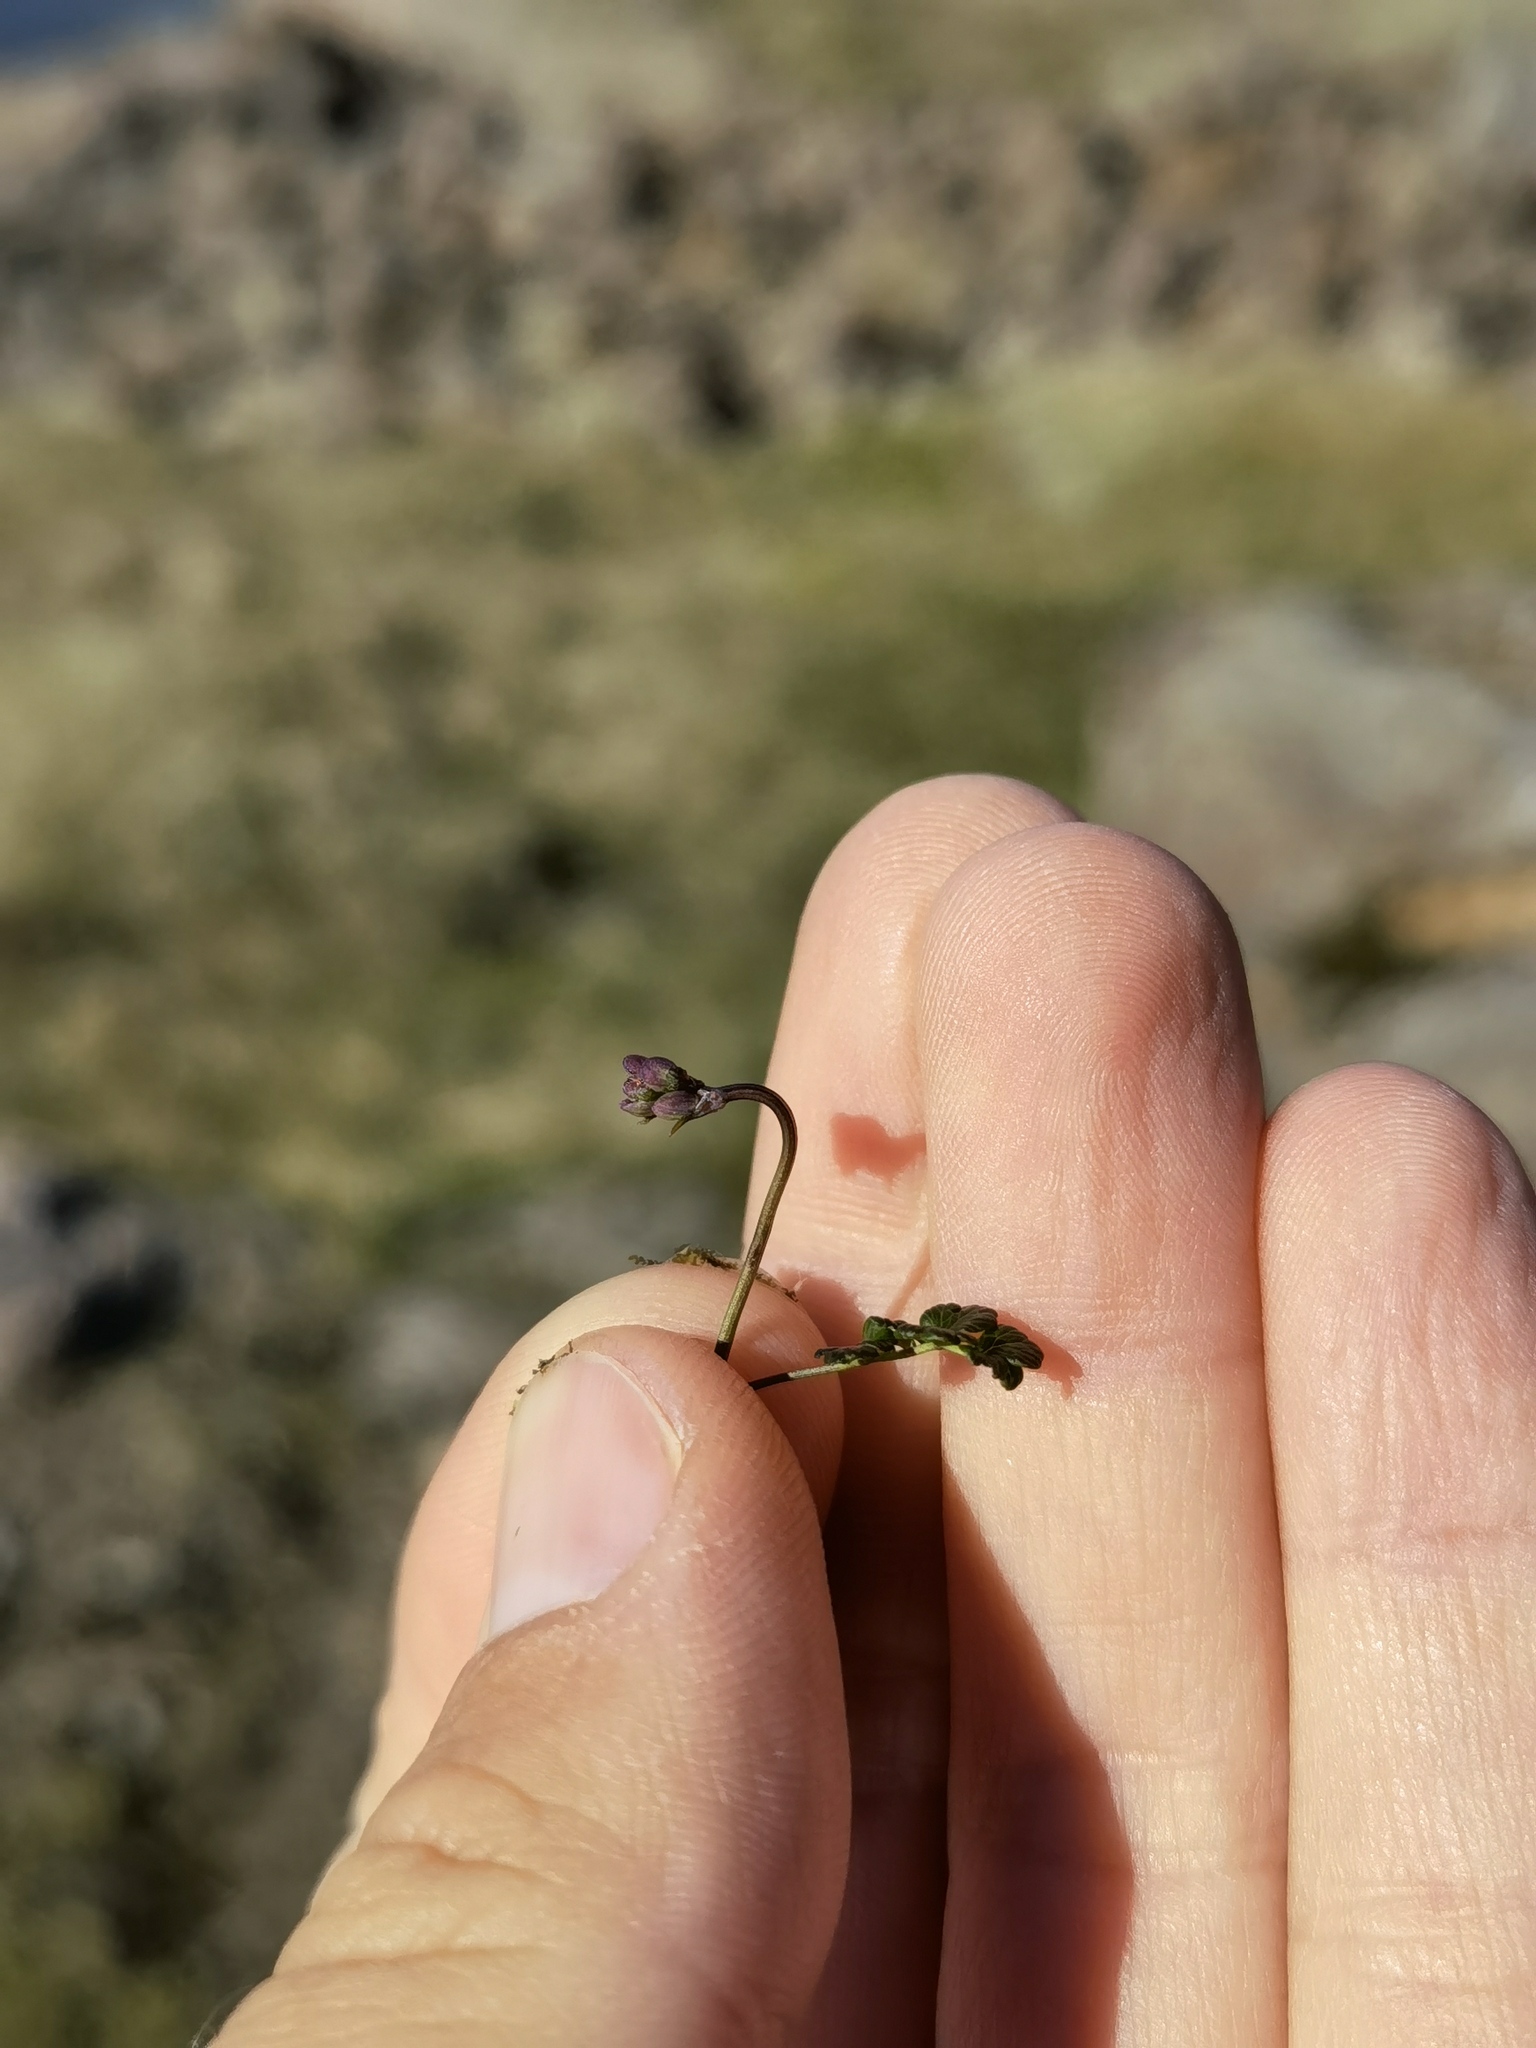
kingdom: Plantae
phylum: Tracheophyta
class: Magnoliopsida
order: Ranunculales
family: Ranunculaceae
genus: Thalictrum
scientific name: Thalictrum alpinum
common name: Alpine meadow-rue
